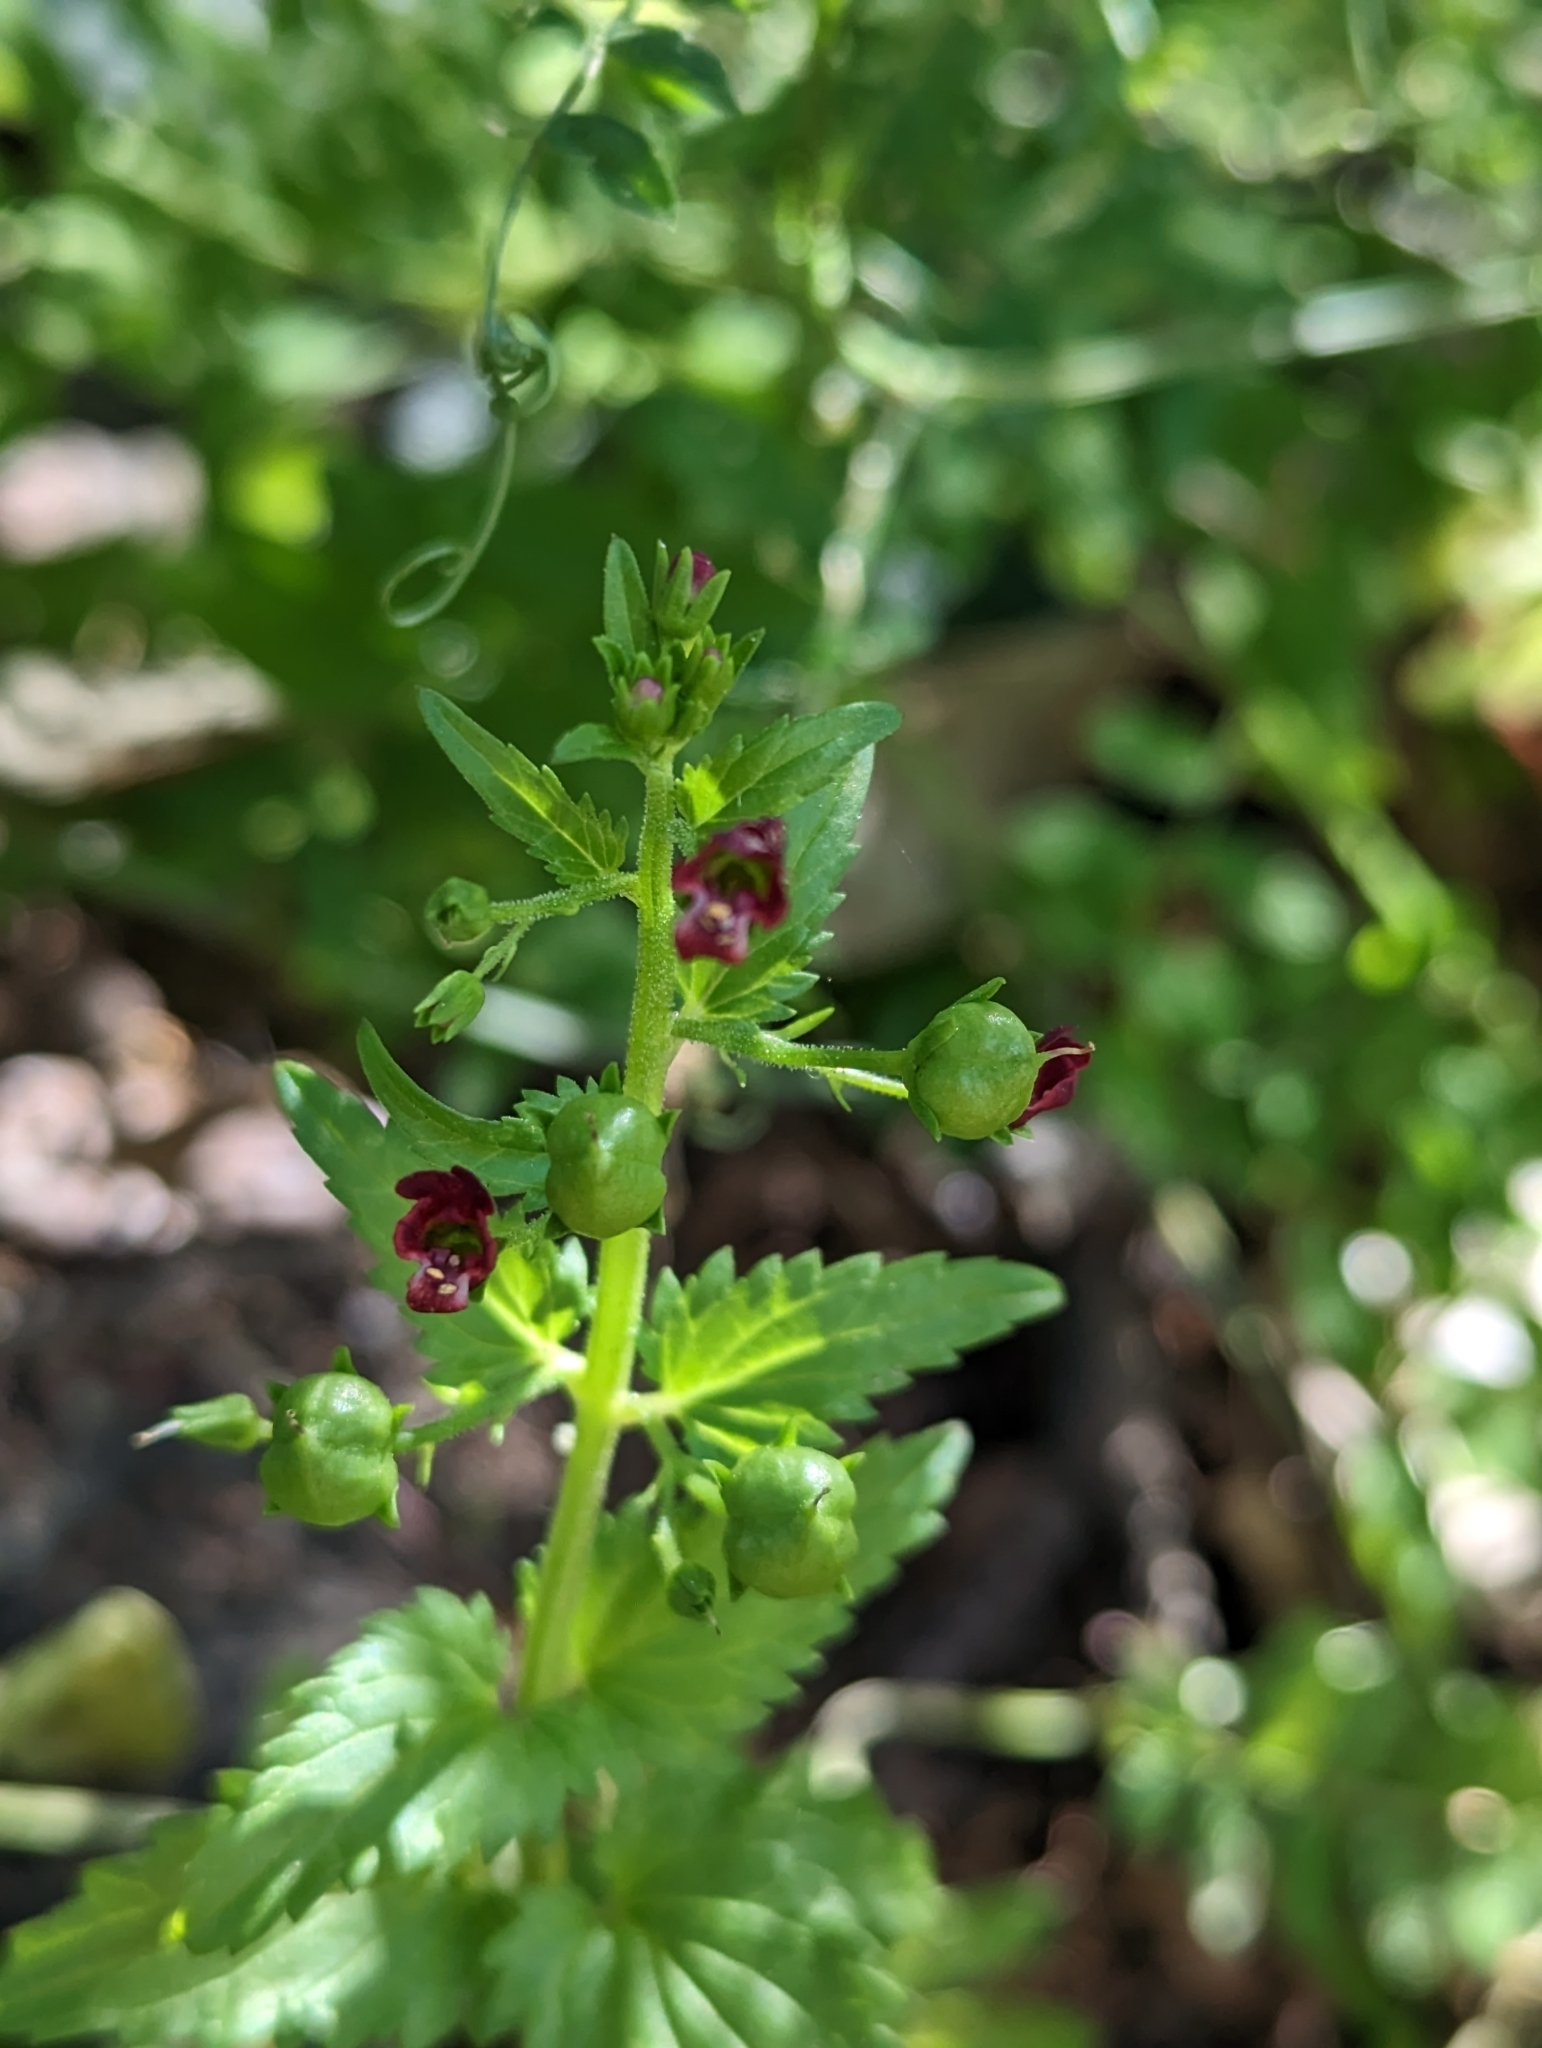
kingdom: Plantae
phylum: Tracheophyta
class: Magnoliopsida
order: Lamiales
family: Scrophulariaceae
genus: Scrophularia
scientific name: Scrophularia peregrina
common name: Mediterranean figwort
